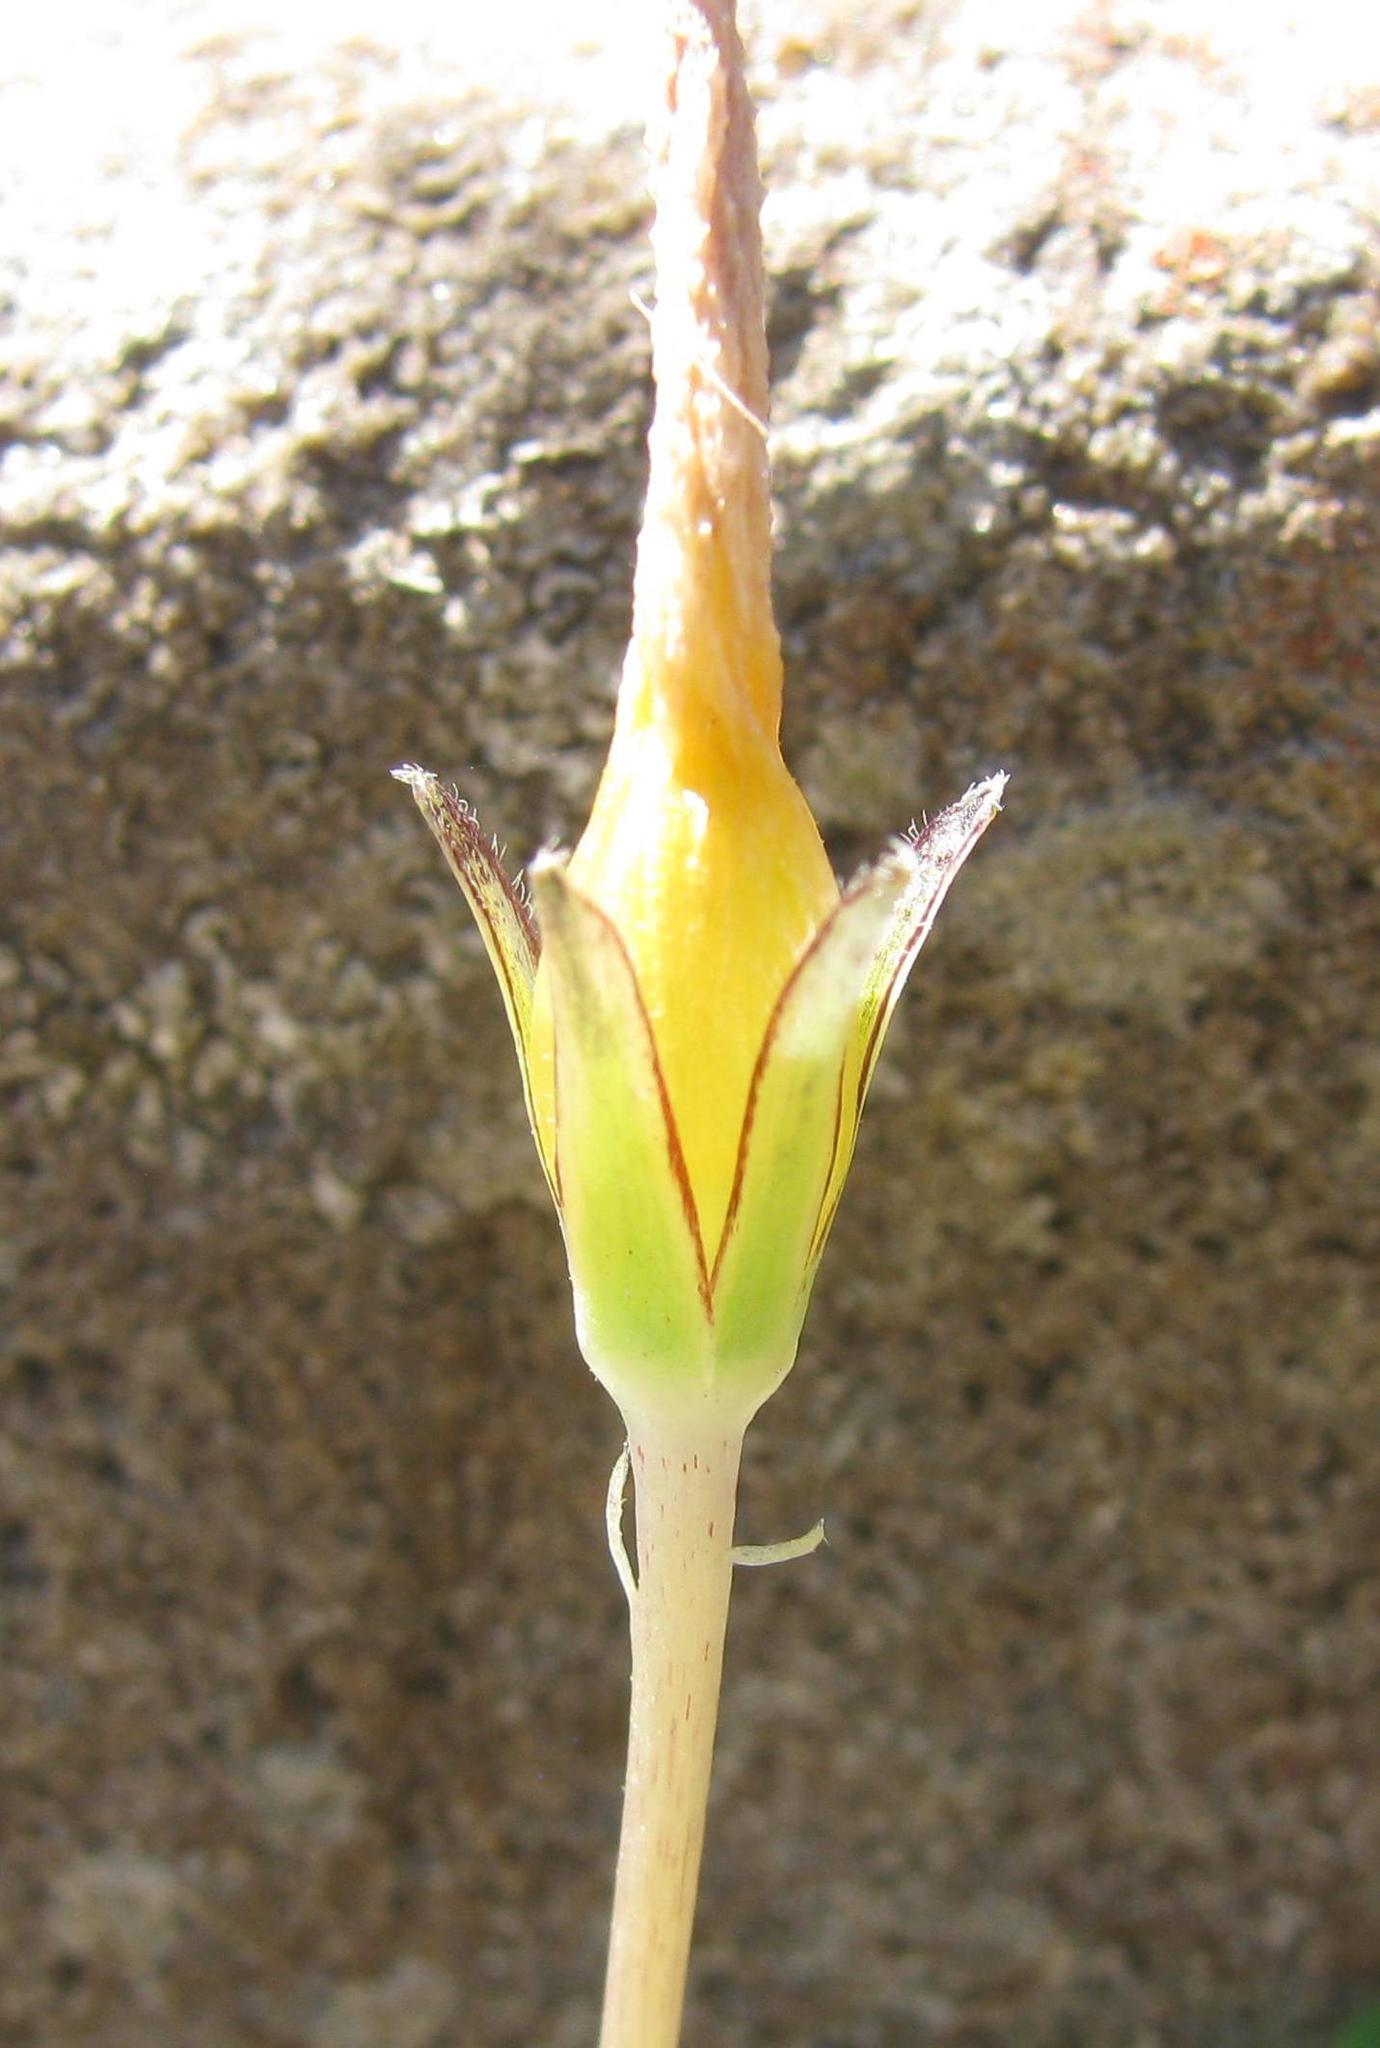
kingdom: Plantae
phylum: Tracheophyta
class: Magnoliopsida
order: Oxalidales
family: Oxalidaceae
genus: Oxalis
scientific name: Oxalis pocockiae
